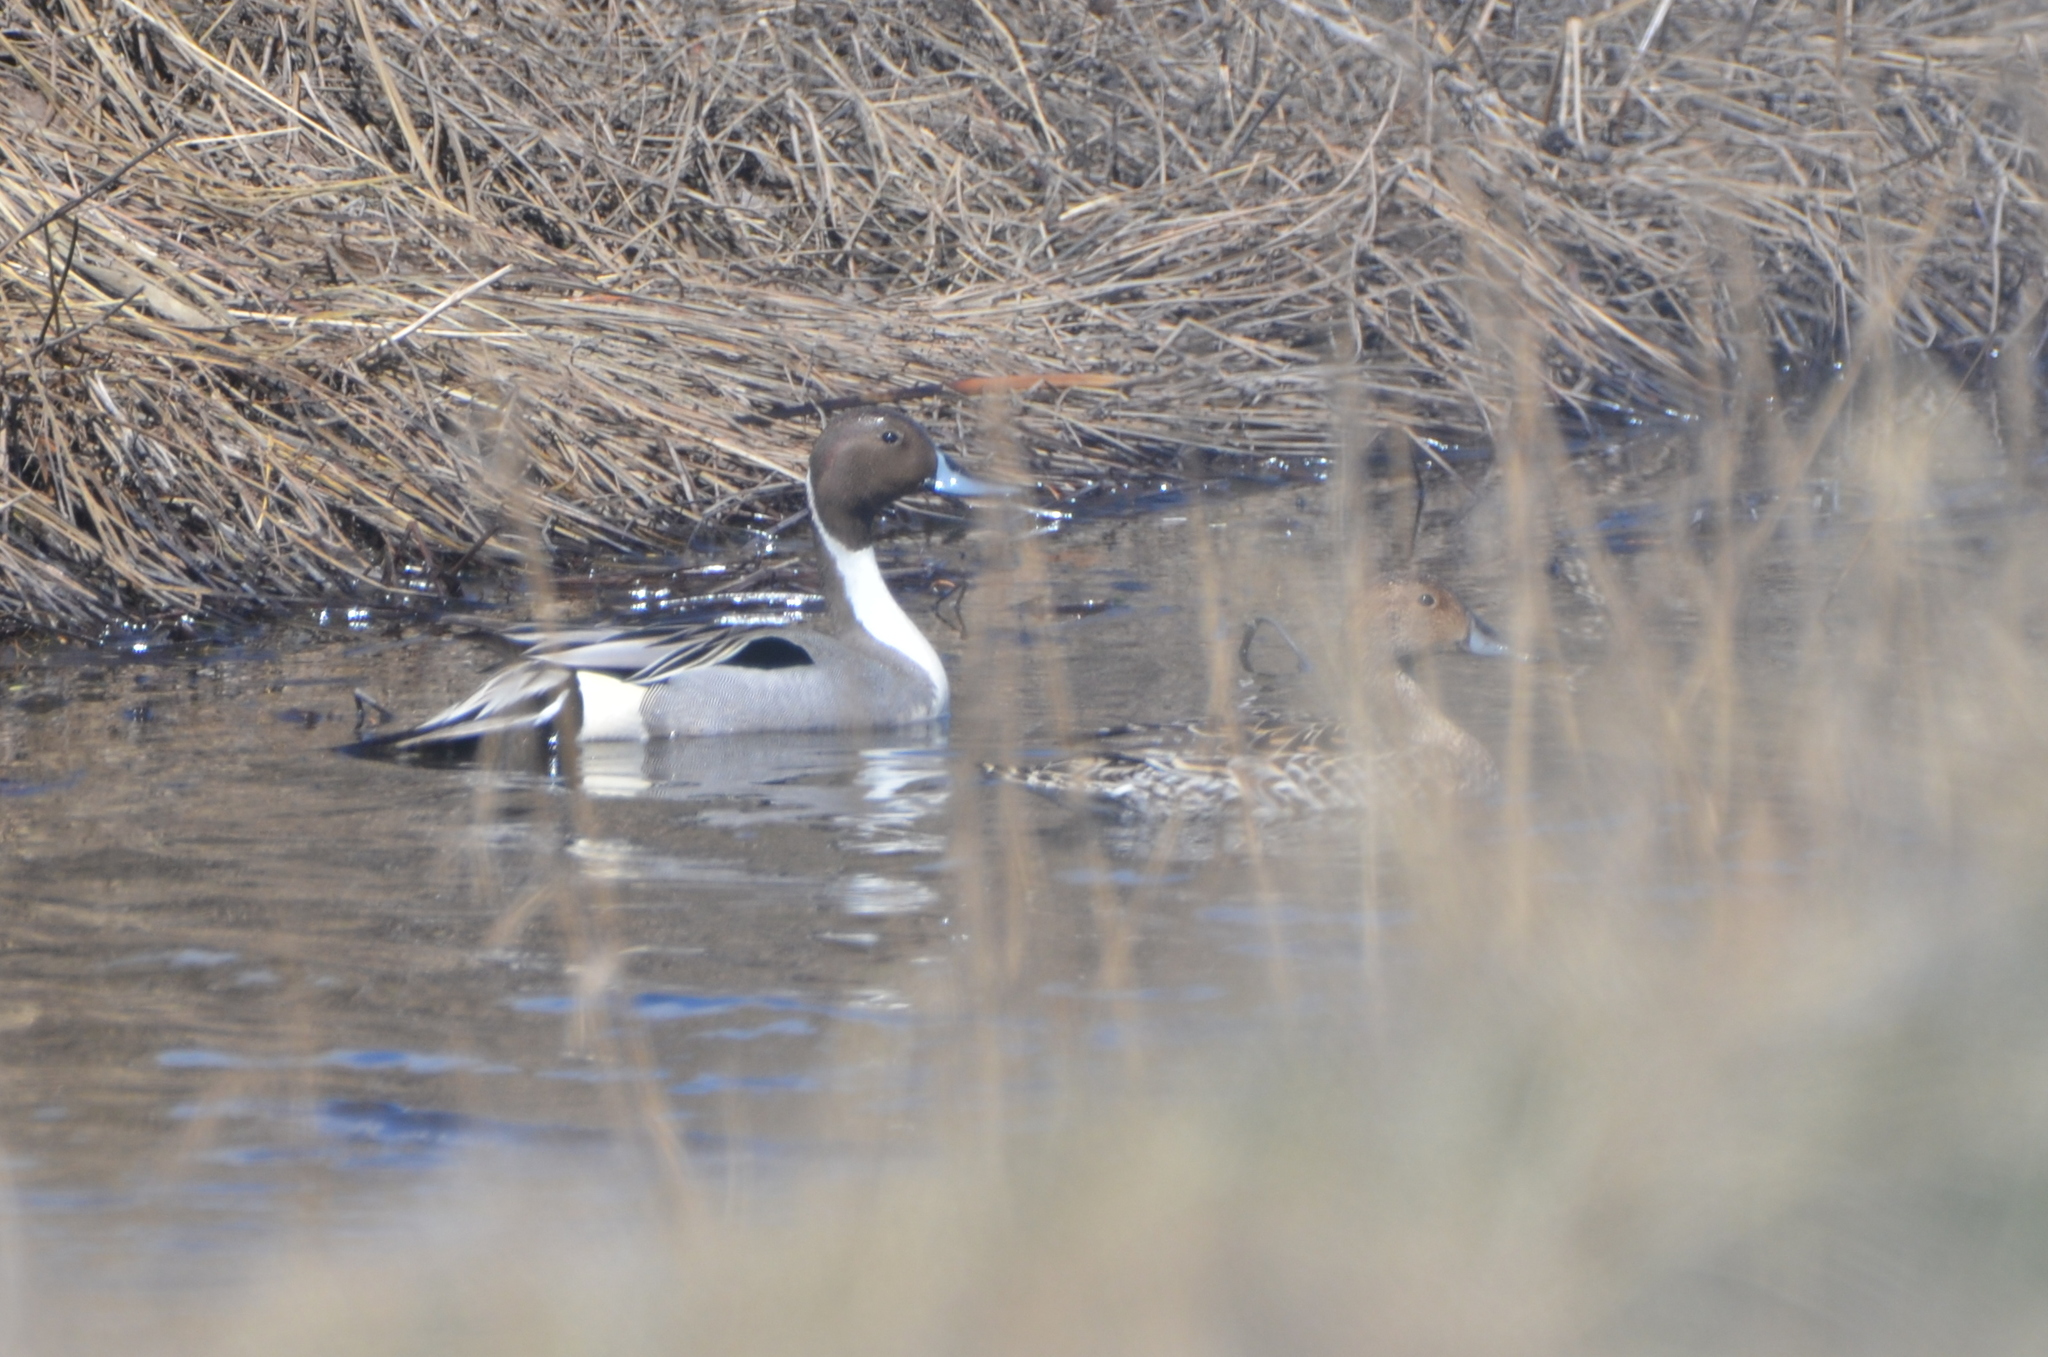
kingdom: Animalia
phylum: Chordata
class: Aves
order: Anseriformes
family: Anatidae
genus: Anas
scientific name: Anas acuta
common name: Northern pintail
